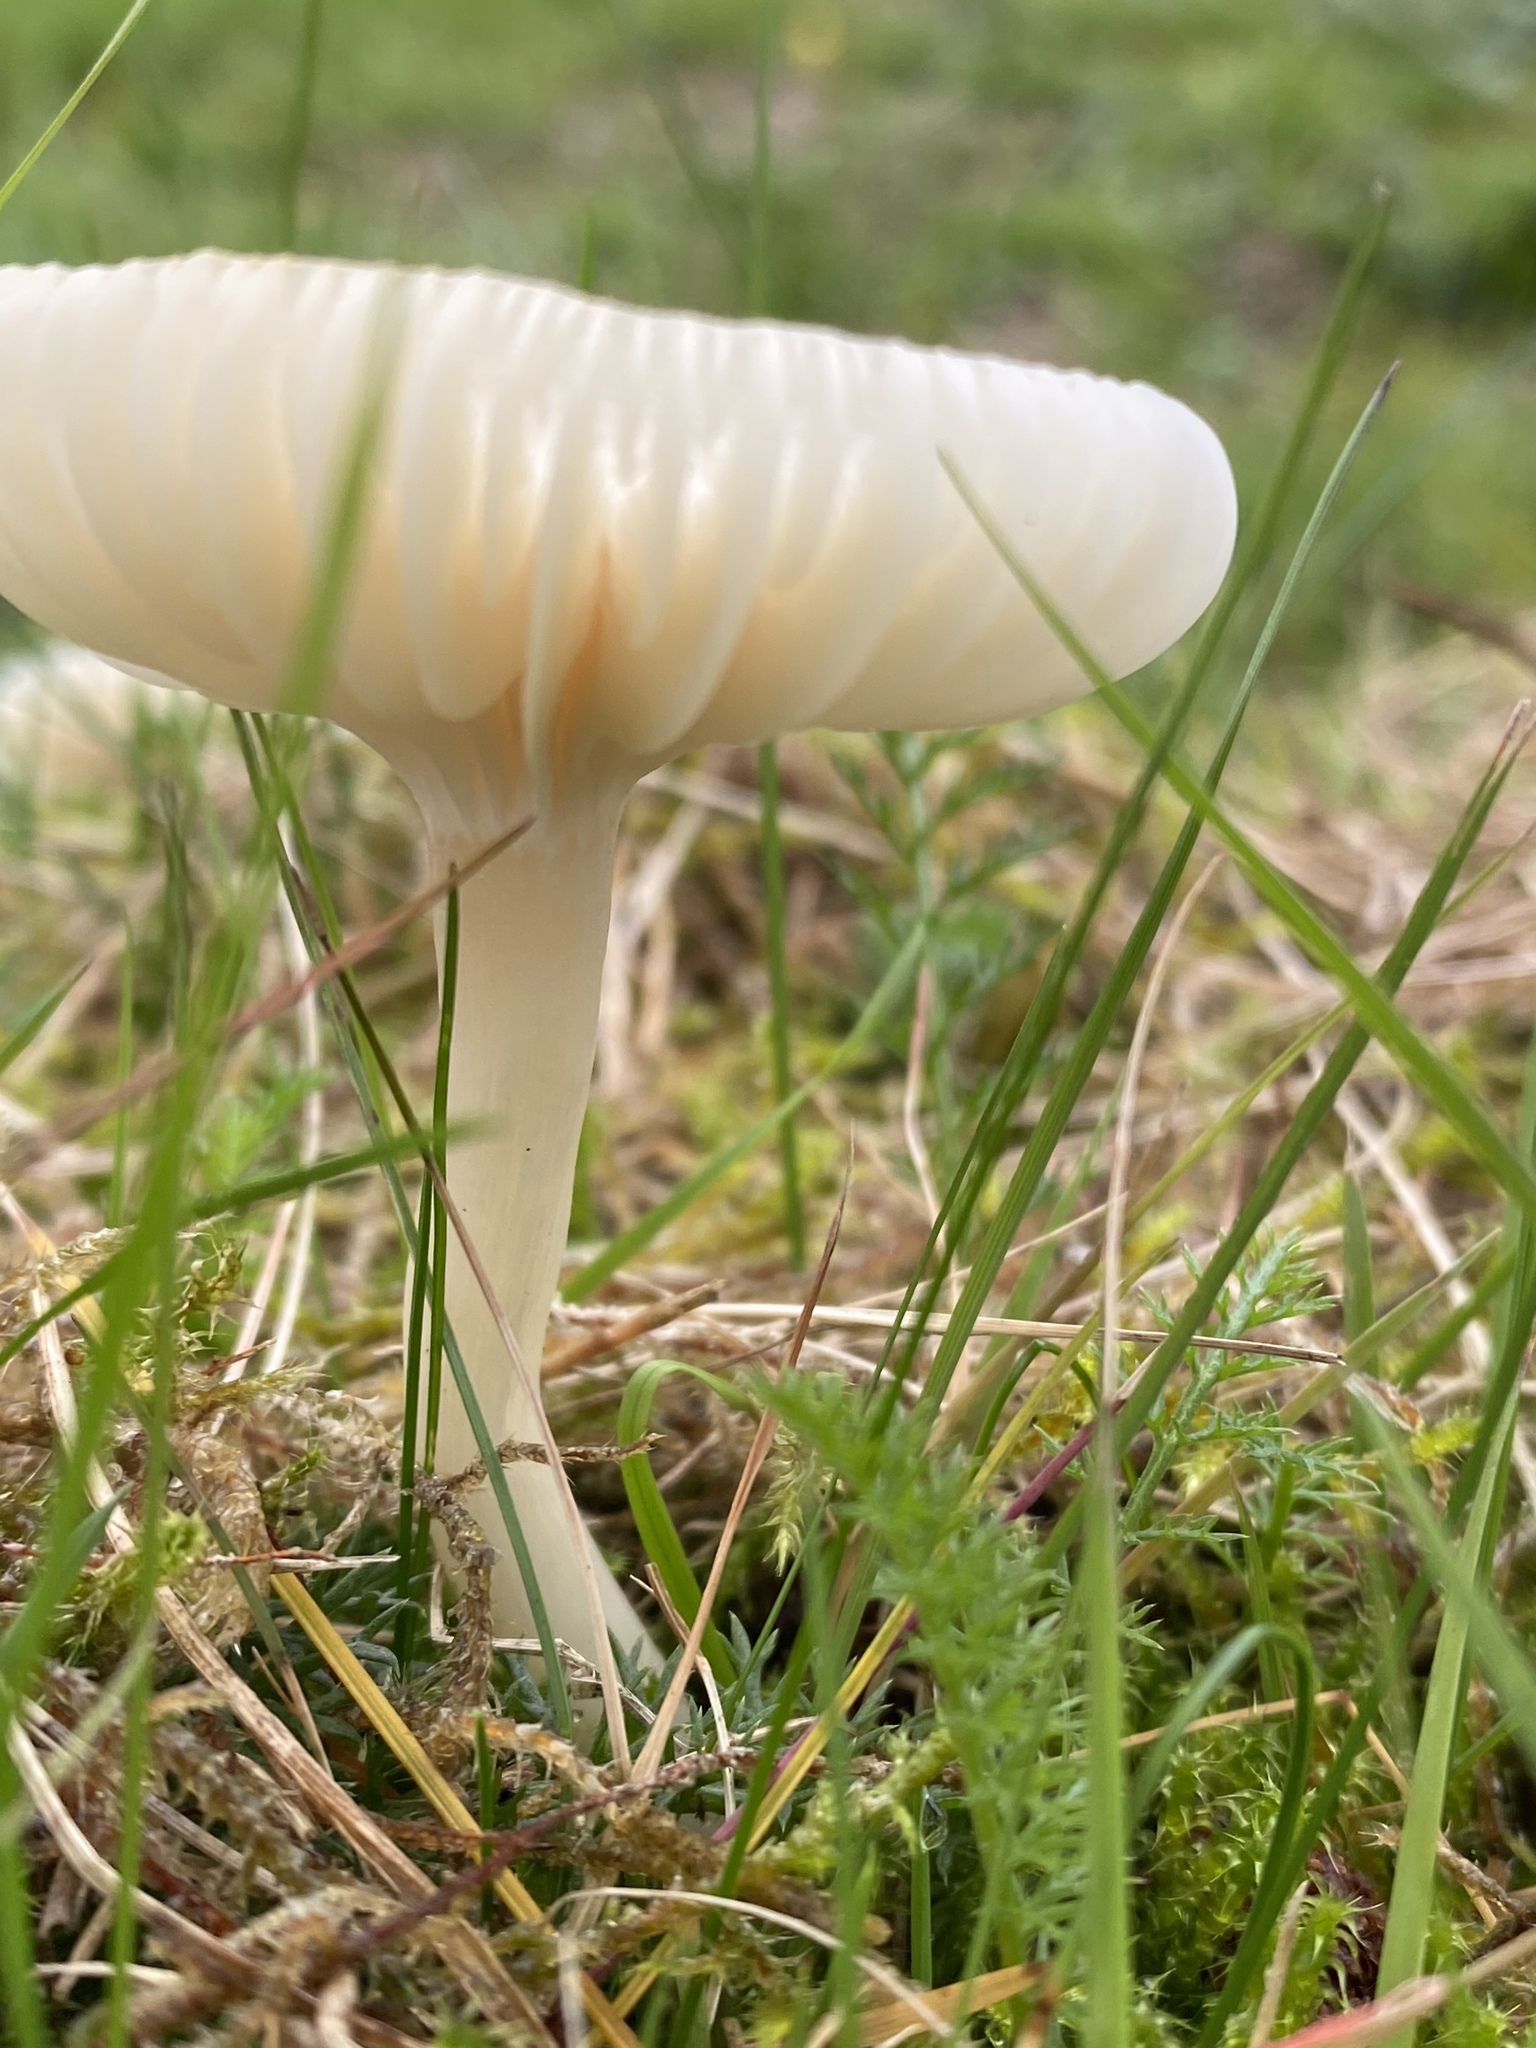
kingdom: Fungi
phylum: Basidiomycota
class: Agaricomycetes
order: Agaricales
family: Hygrophoraceae
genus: Cuphophyllus
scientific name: Cuphophyllus virgineus
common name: Snowy waxcap
